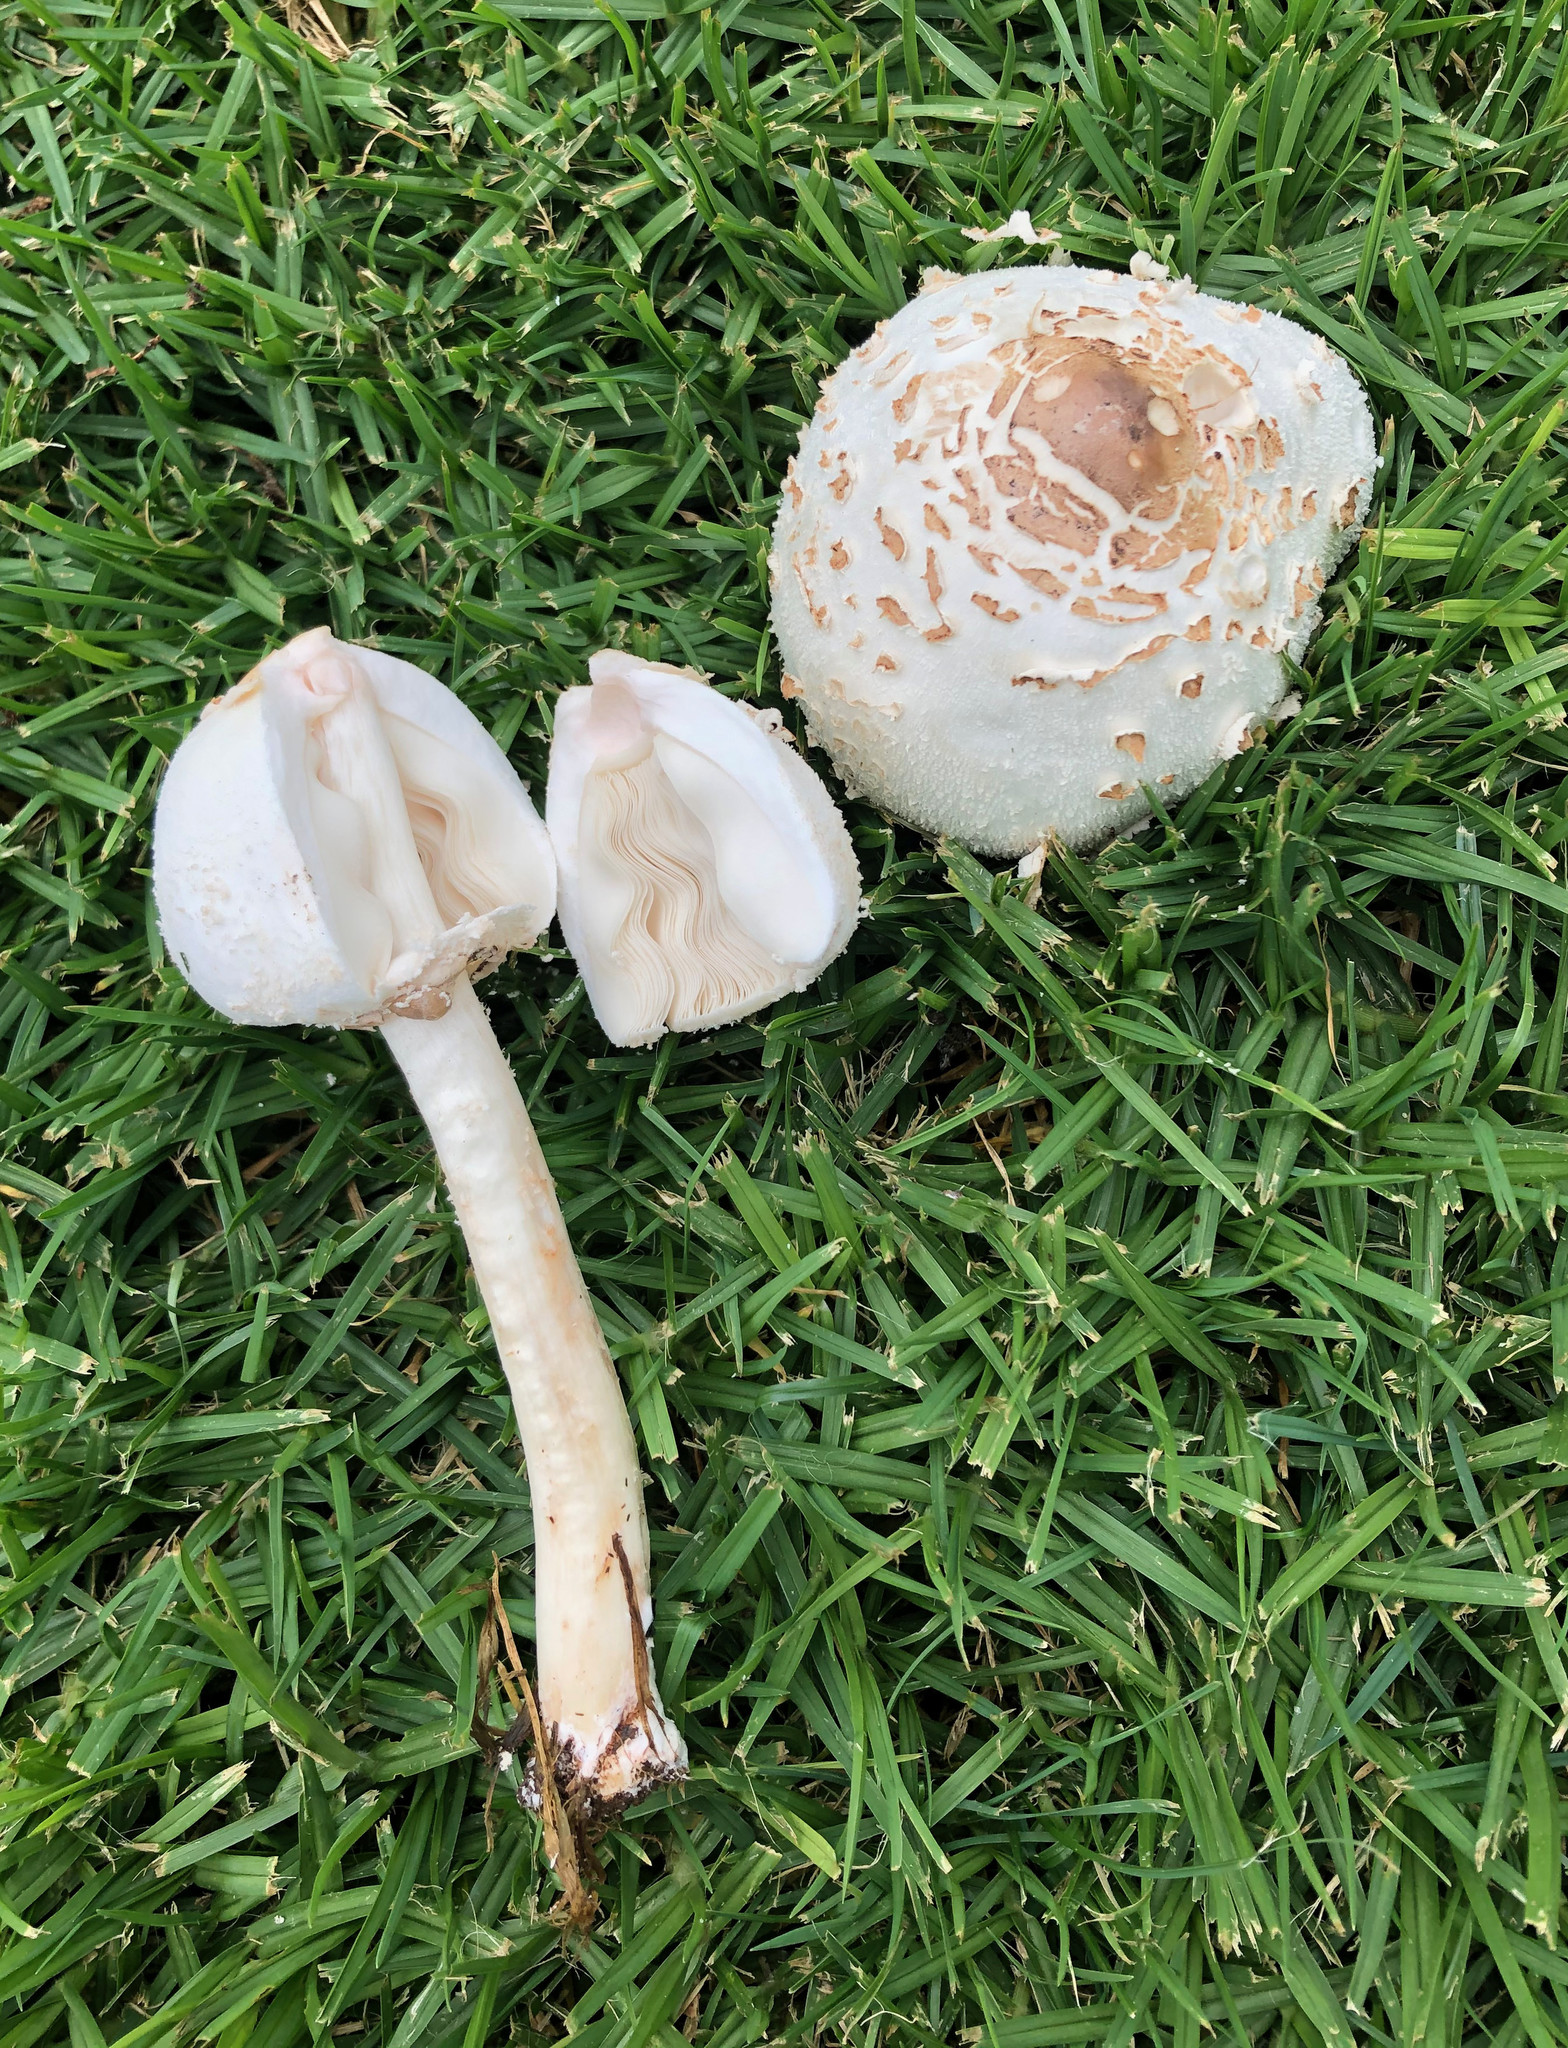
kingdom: Fungi
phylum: Basidiomycota
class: Agaricomycetes
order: Agaricales
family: Agaricaceae
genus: Chlorophyllum
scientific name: Chlorophyllum molybdites
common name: False parasol
